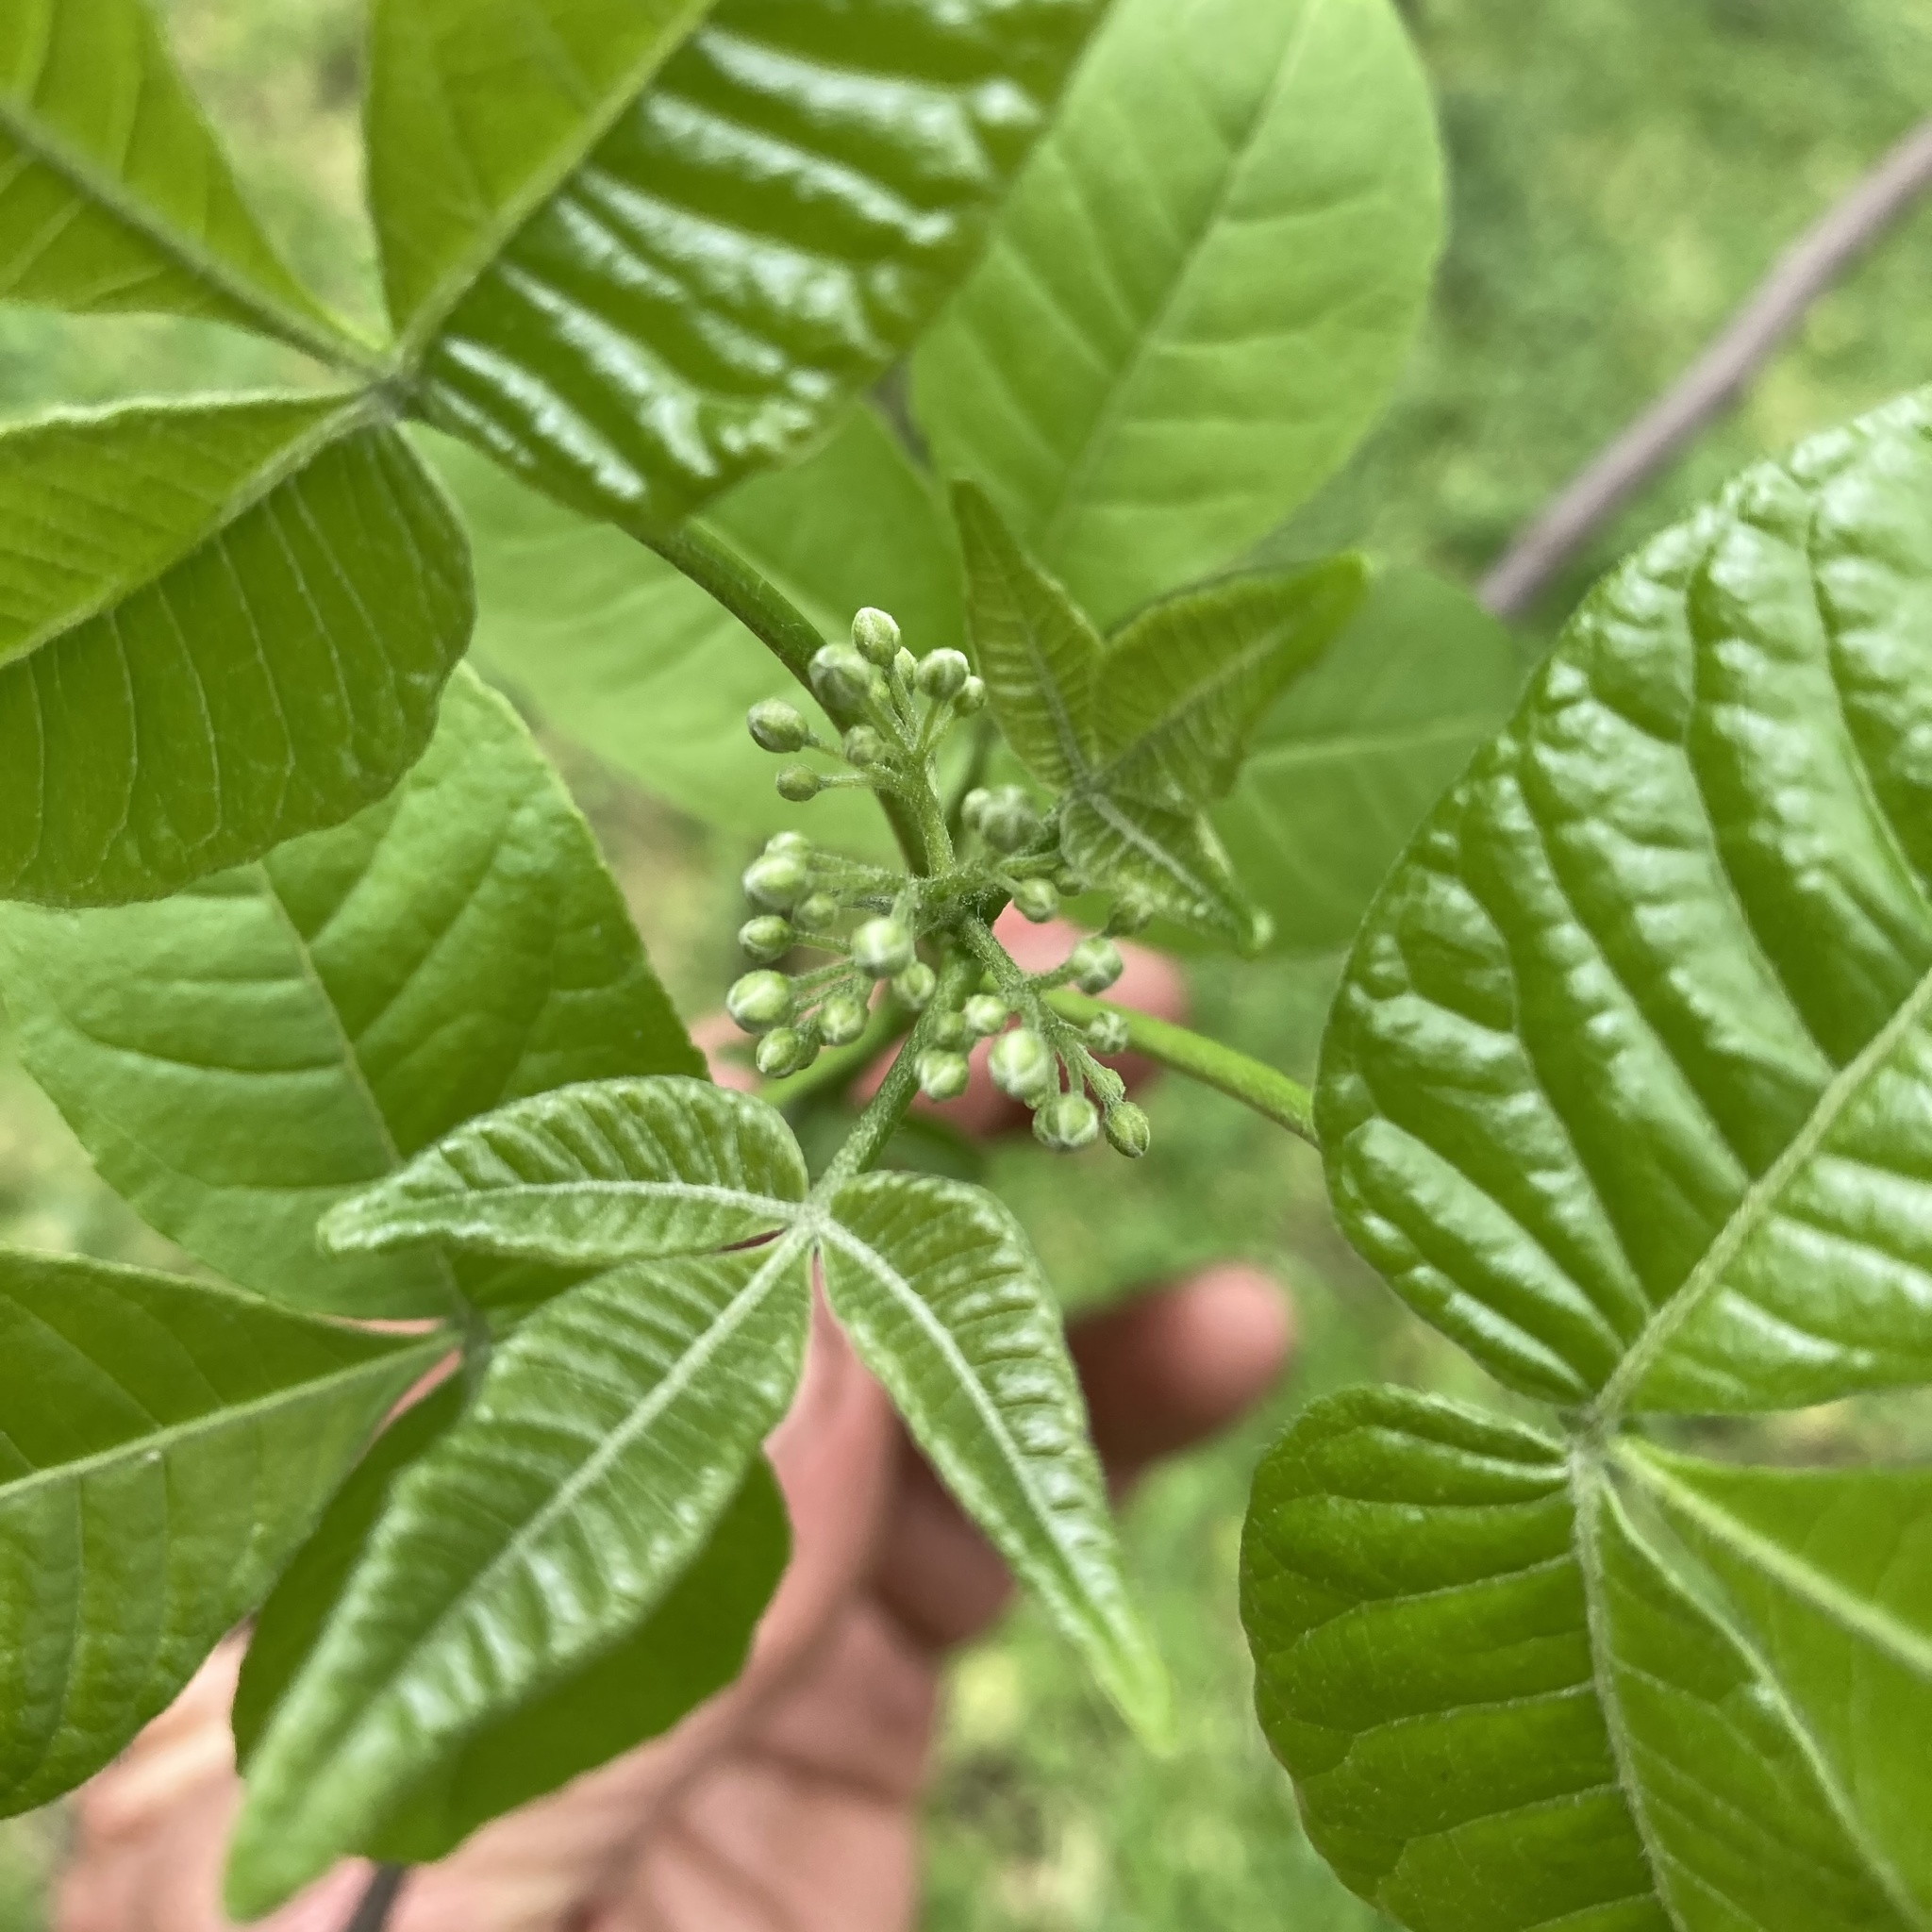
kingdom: Plantae
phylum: Tracheophyta
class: Magnoliopsida
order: Sapindales
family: Rutaceae
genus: Ptelea
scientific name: Ptelea trifoliata
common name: Common hop-tree
